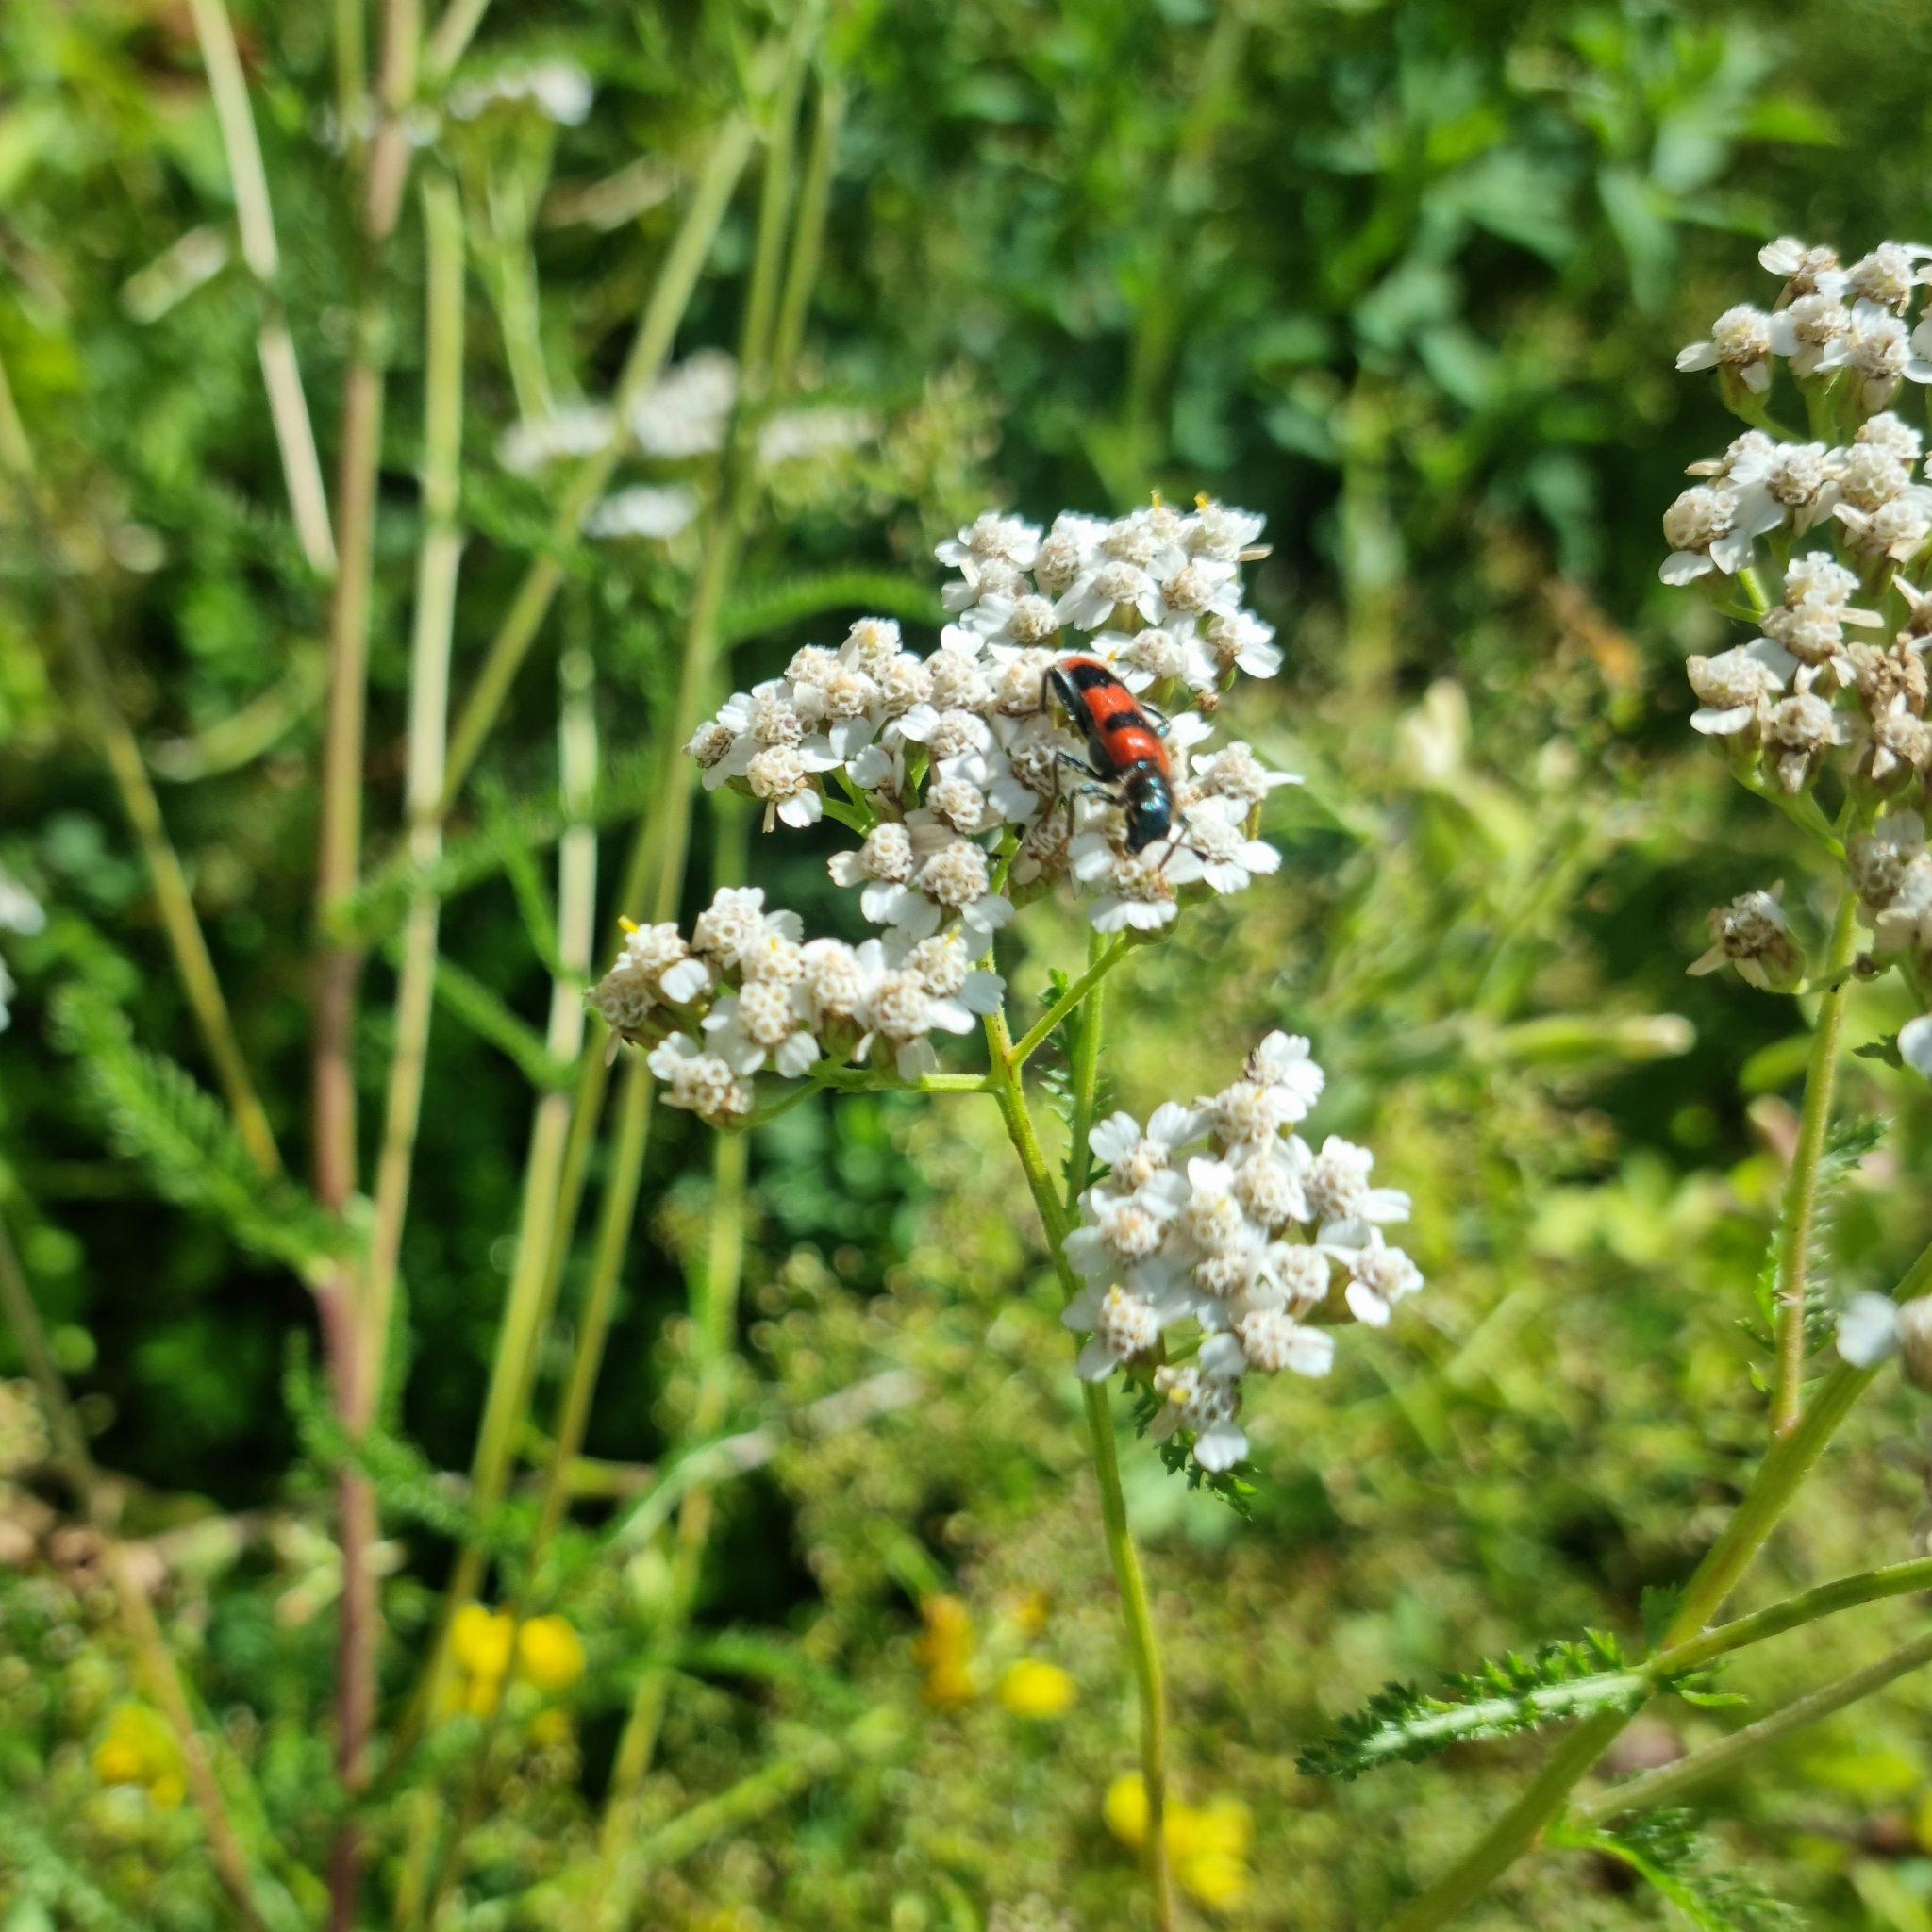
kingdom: Animalia
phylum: Arthropoda
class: Insecta
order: Coleoptera
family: Cleridae
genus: Trichodes
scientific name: Trichodes apiarius
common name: Bee-eating beetle
